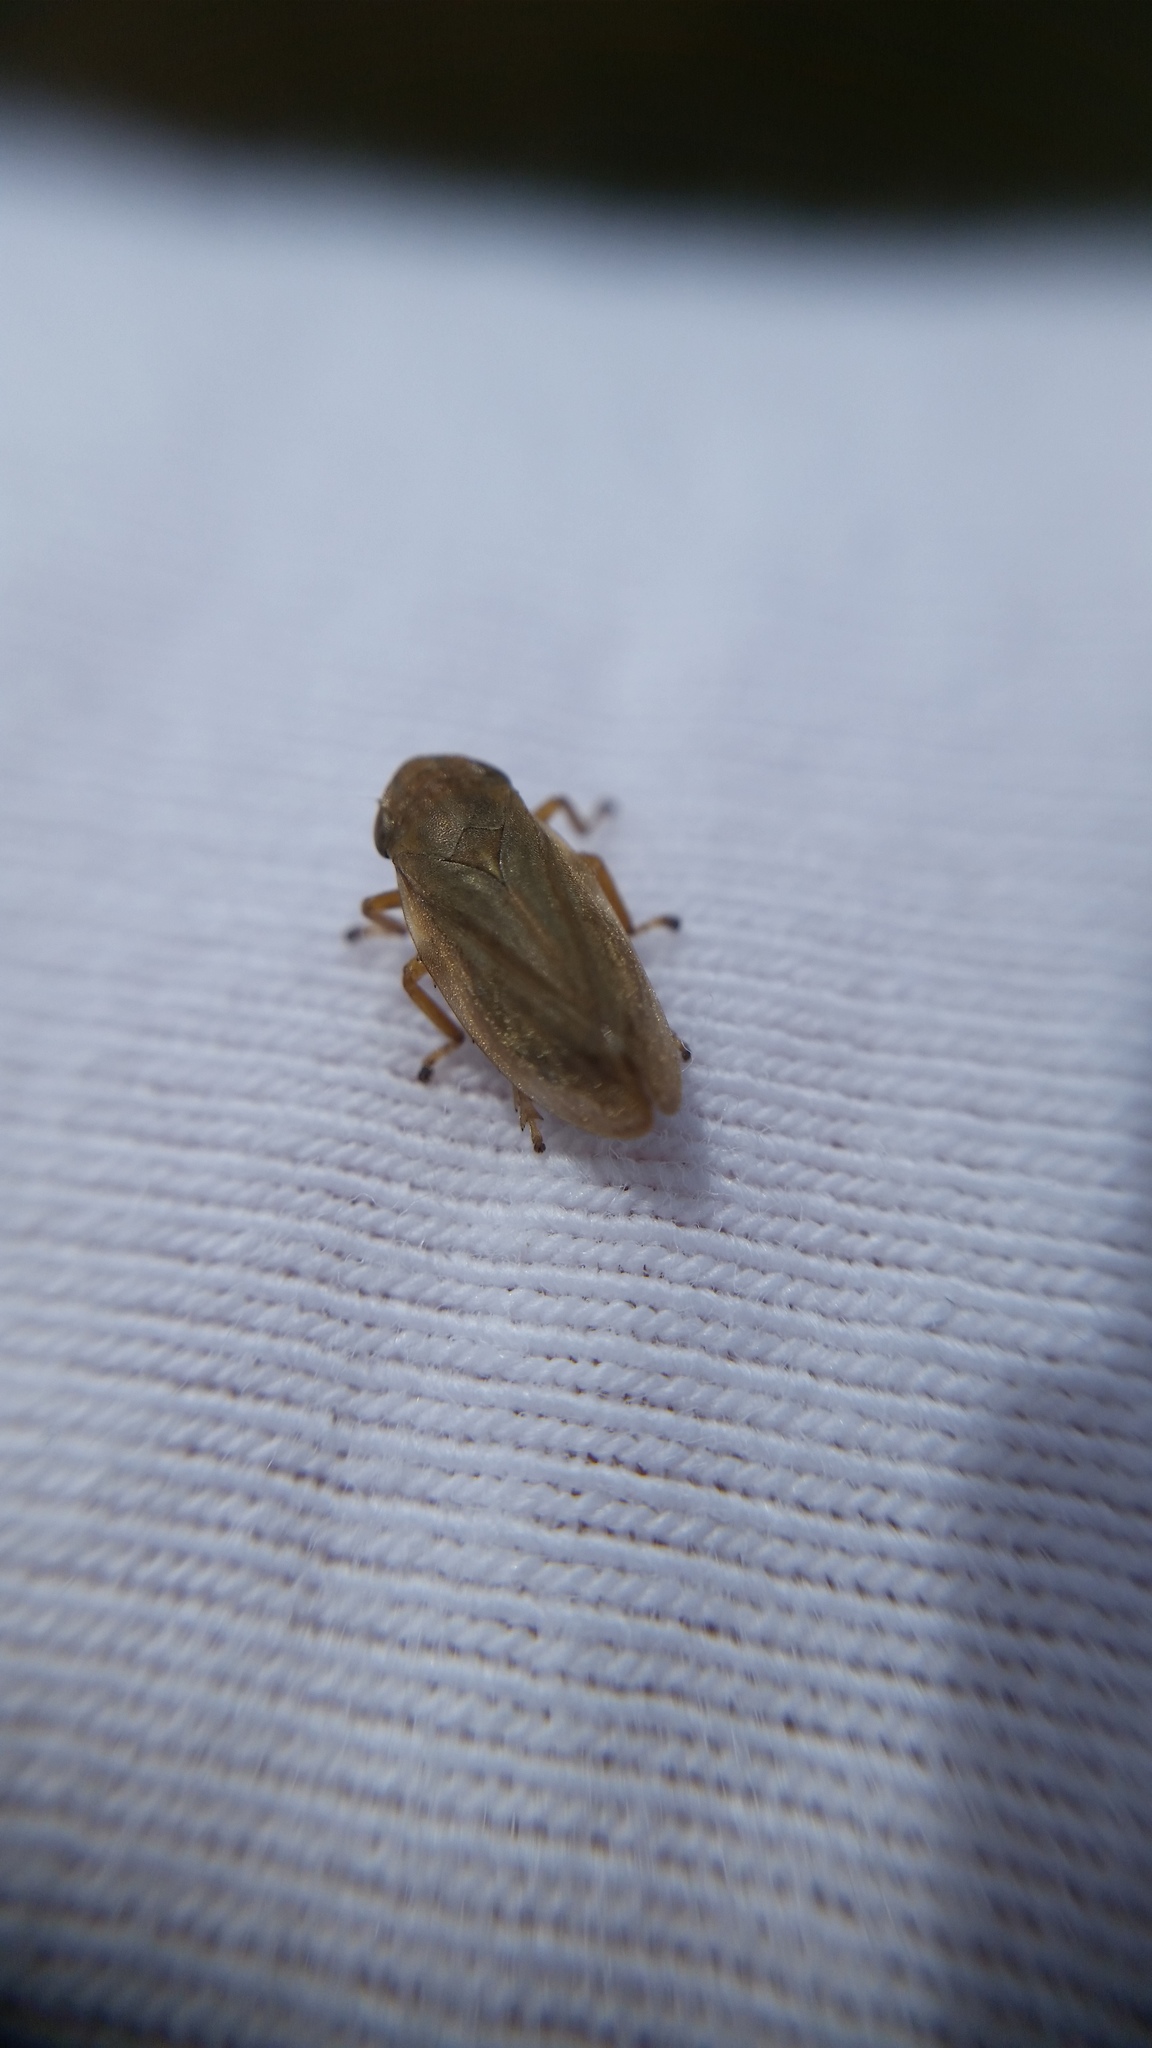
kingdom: Animalia
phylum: Arthropoda
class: Insecta
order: Hemiptera
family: Aphrophoridae
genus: Philaenus
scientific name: Philaenus spumarius
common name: Meadow spittlebug
